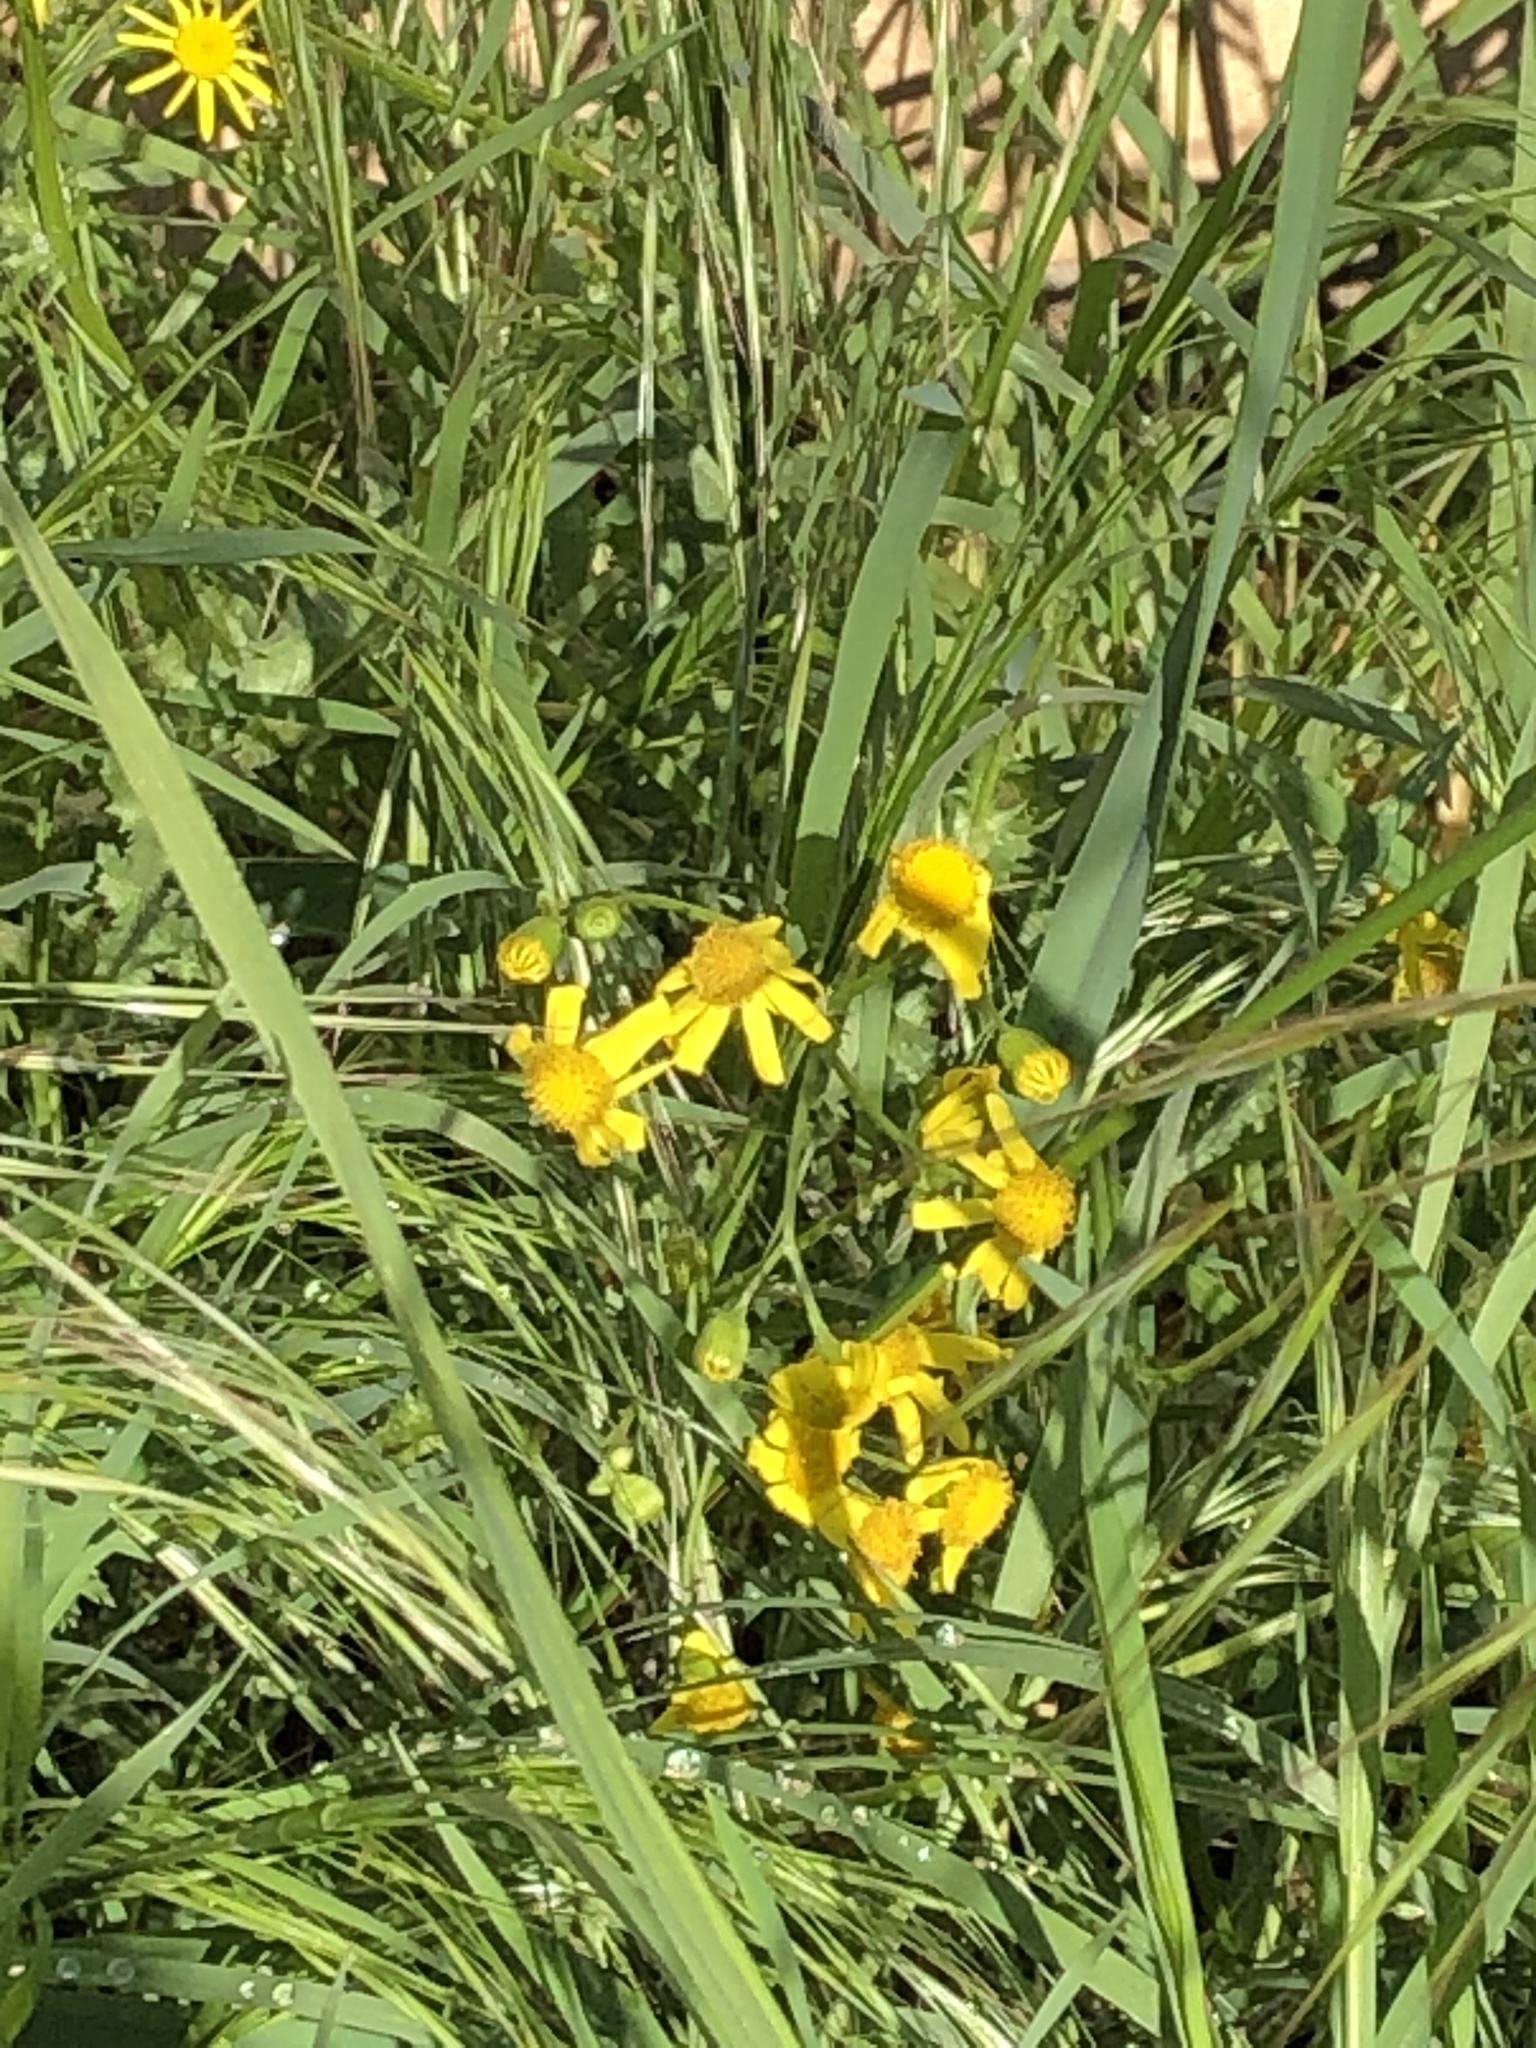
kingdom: Plantae
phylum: Tracheophyta
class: Magnoliopsida
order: Asterales
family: Asteraceae
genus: Senecio
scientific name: Senecio vernalis
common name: Eastern groundsel
